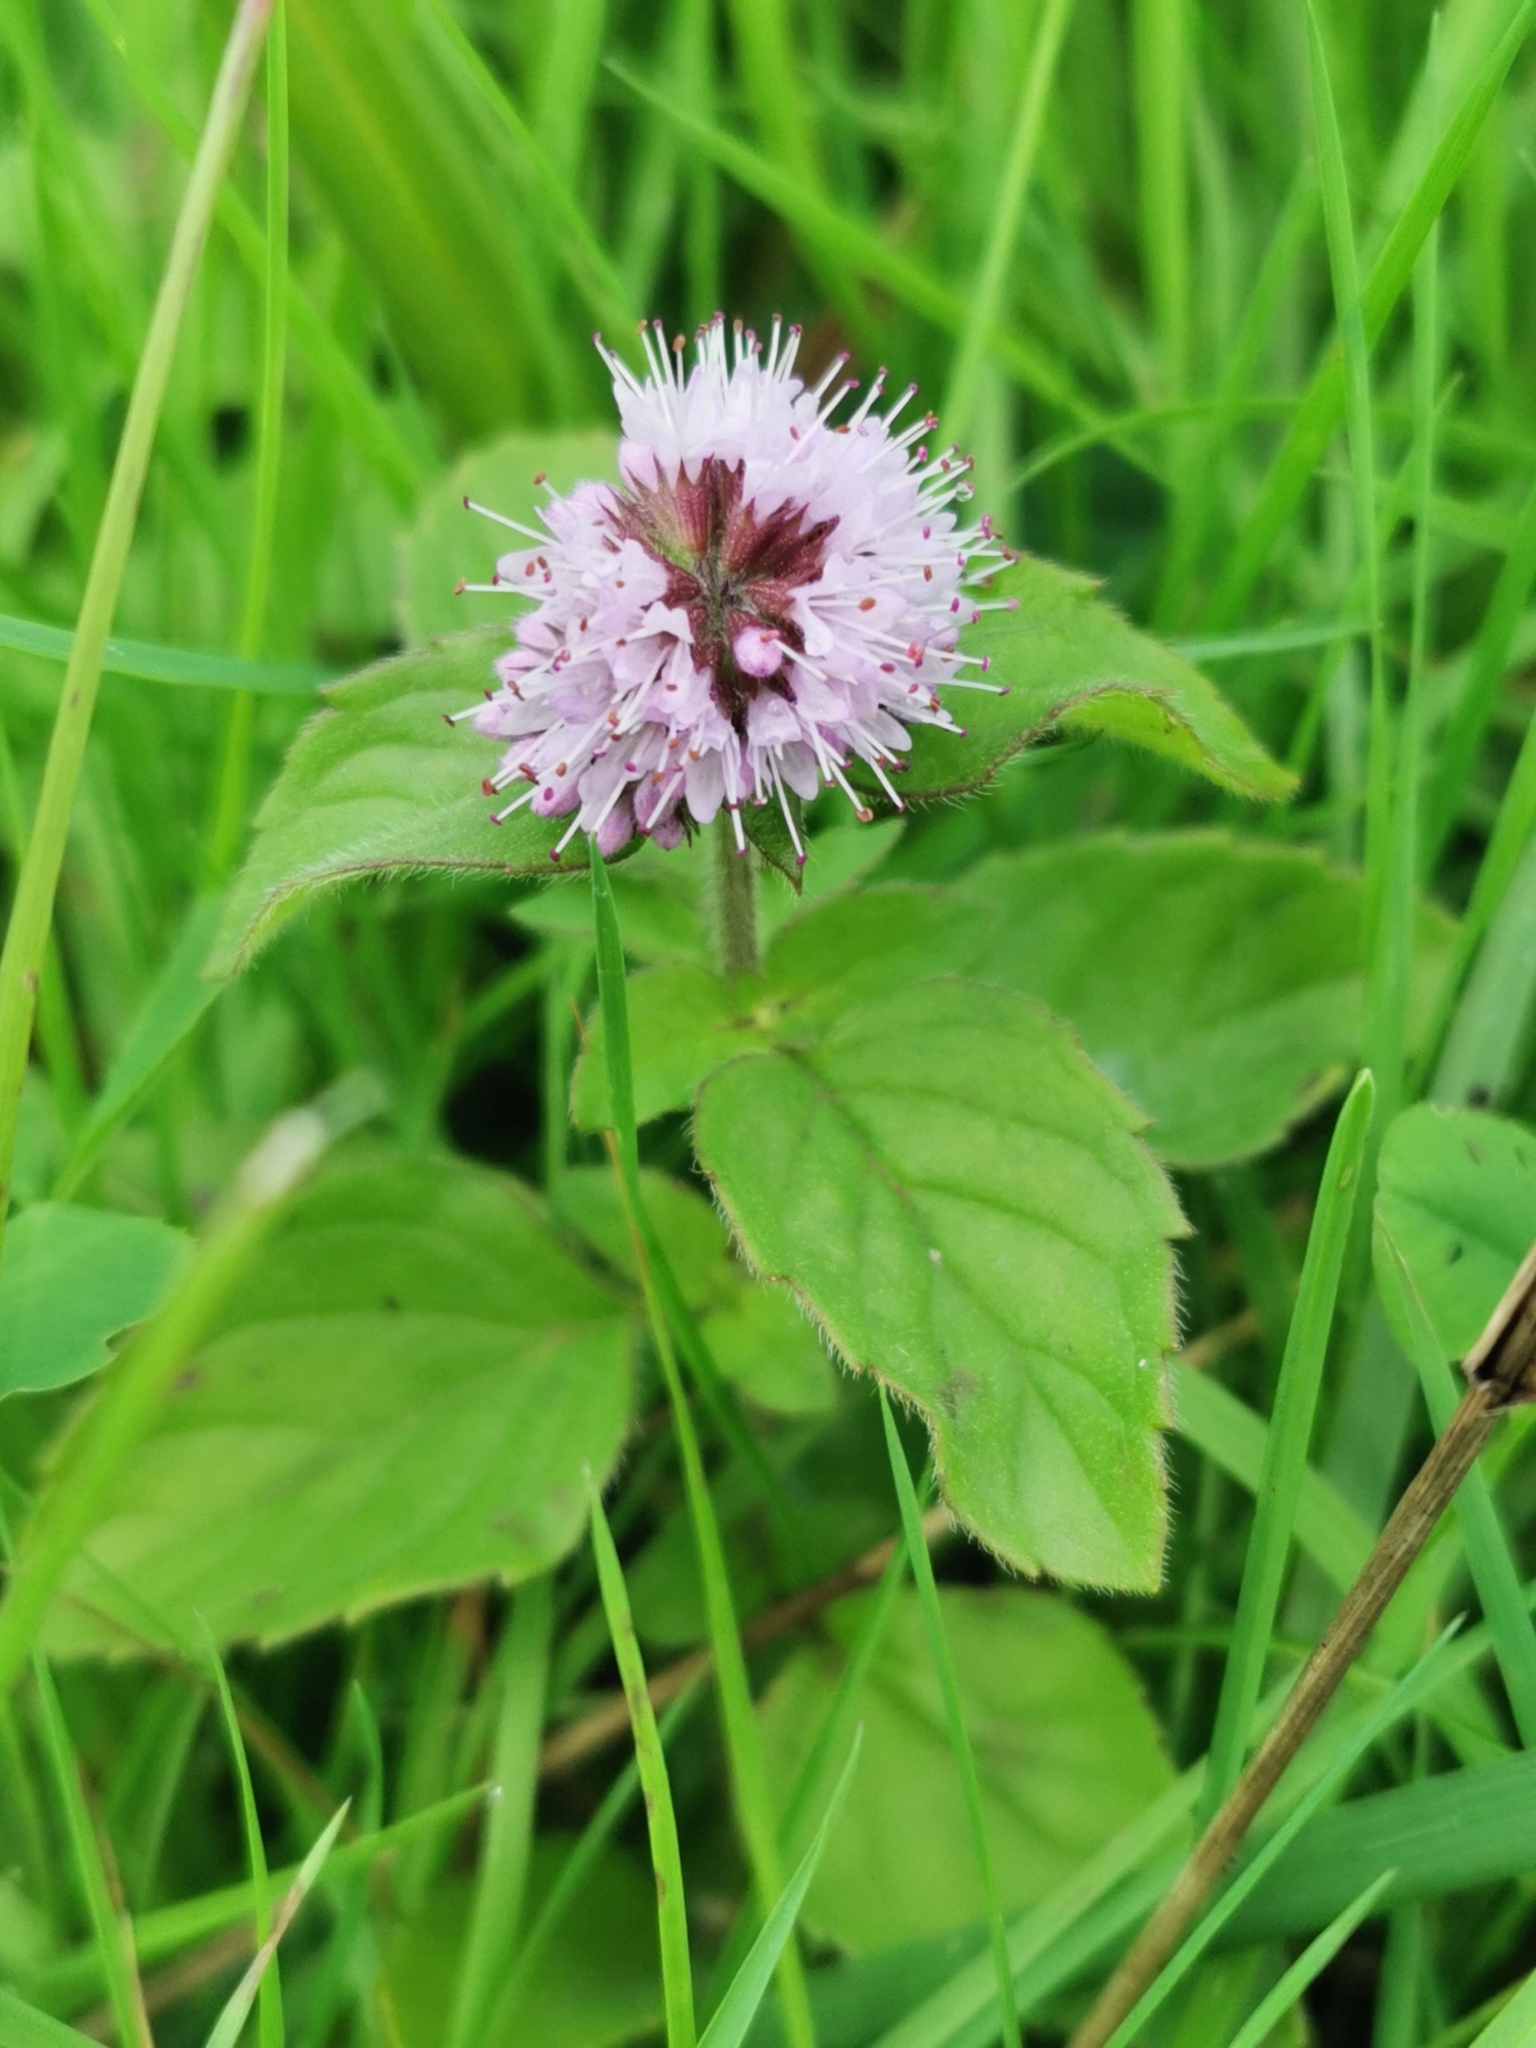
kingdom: Plantae
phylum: Tracheophyta
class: Magnoliopsida
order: Lamiales
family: Lamiaceae
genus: Mentha
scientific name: Mentha aquatica
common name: Water mint
